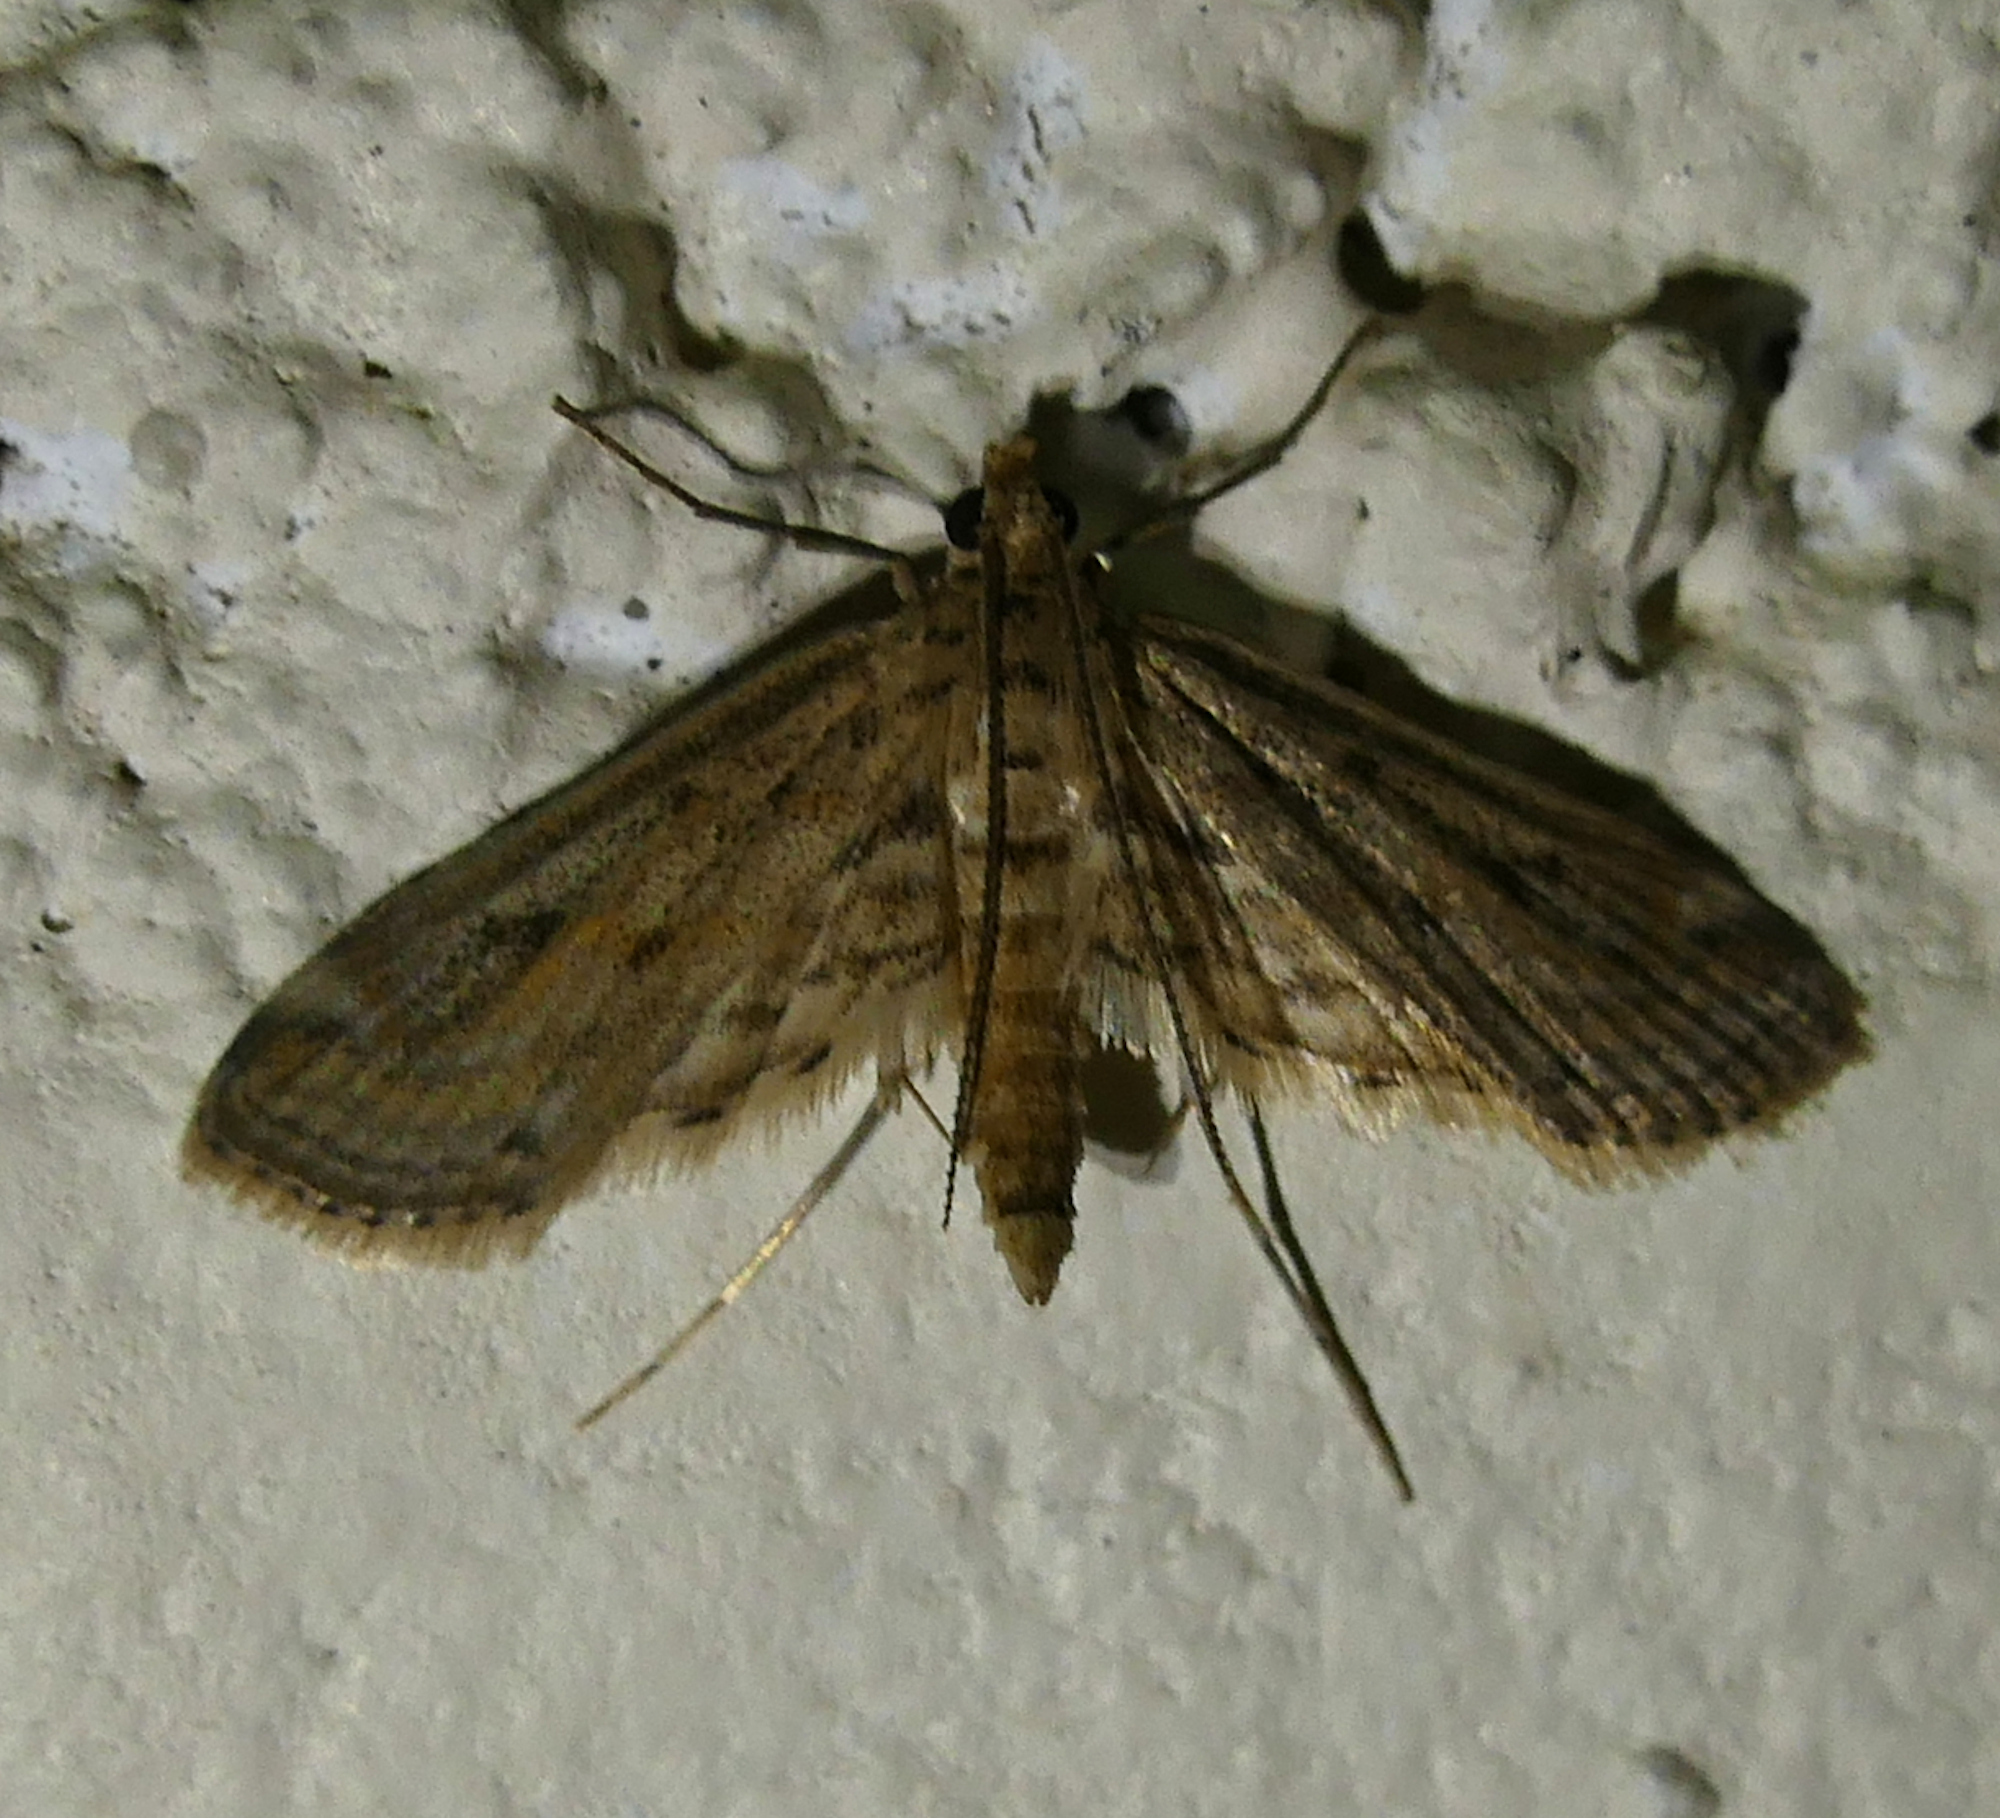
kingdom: Animalia
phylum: Arthropoda
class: Insecta
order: Lepidoptera
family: Crambidae
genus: Parapoynx
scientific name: Parapoynx allionealis
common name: Bladderwort casemaker
